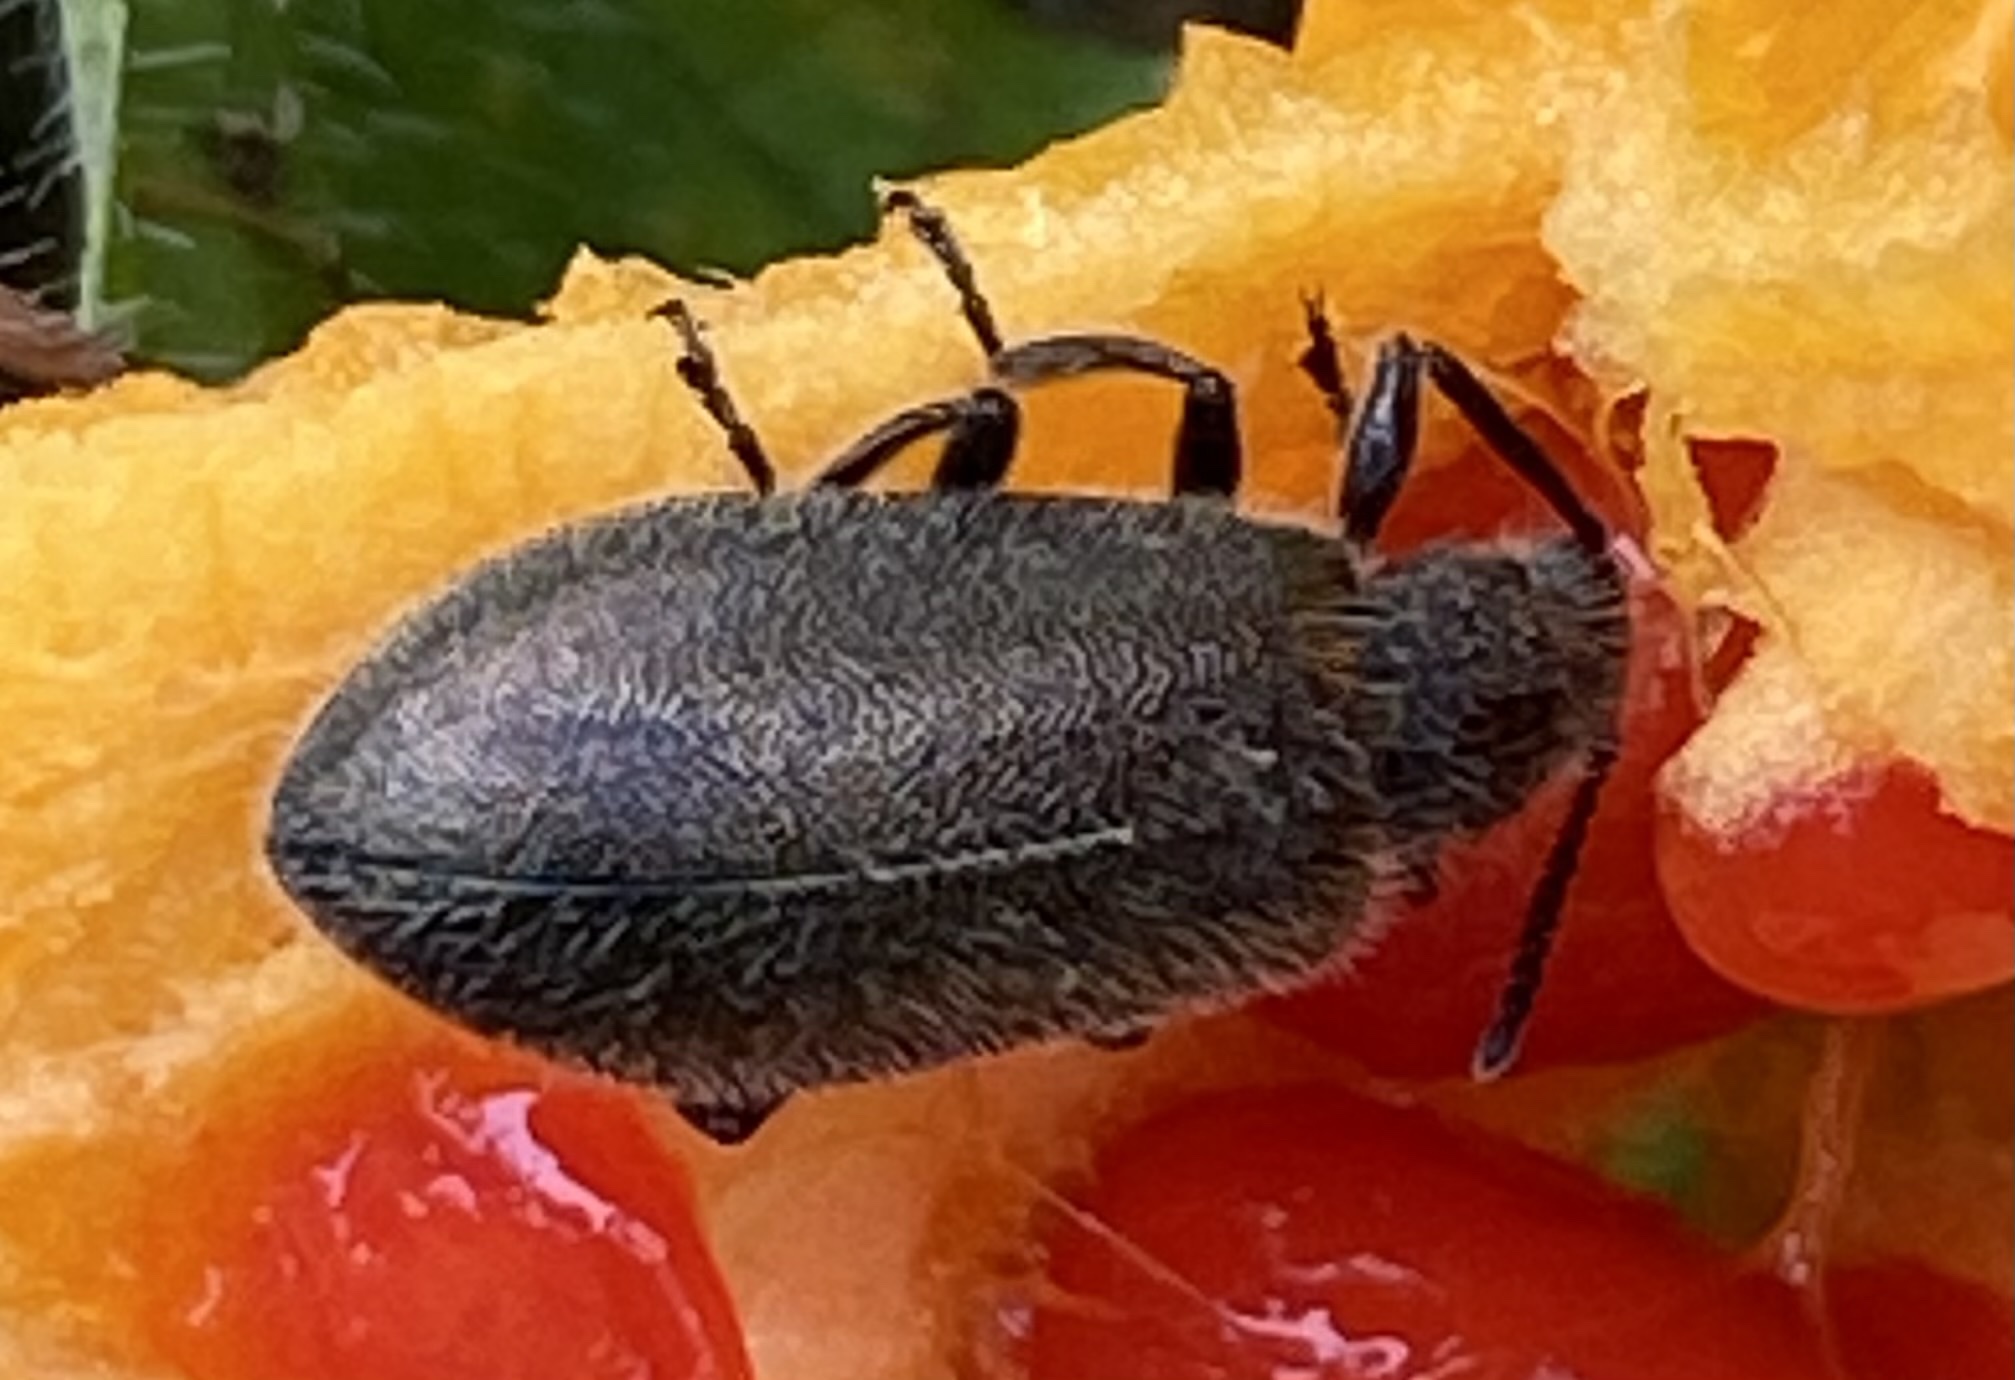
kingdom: Animalia
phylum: Arthropoda
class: Insecta
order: Coleoptera
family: Tenebrionidae
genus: Lagria
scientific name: Lagria villosa
